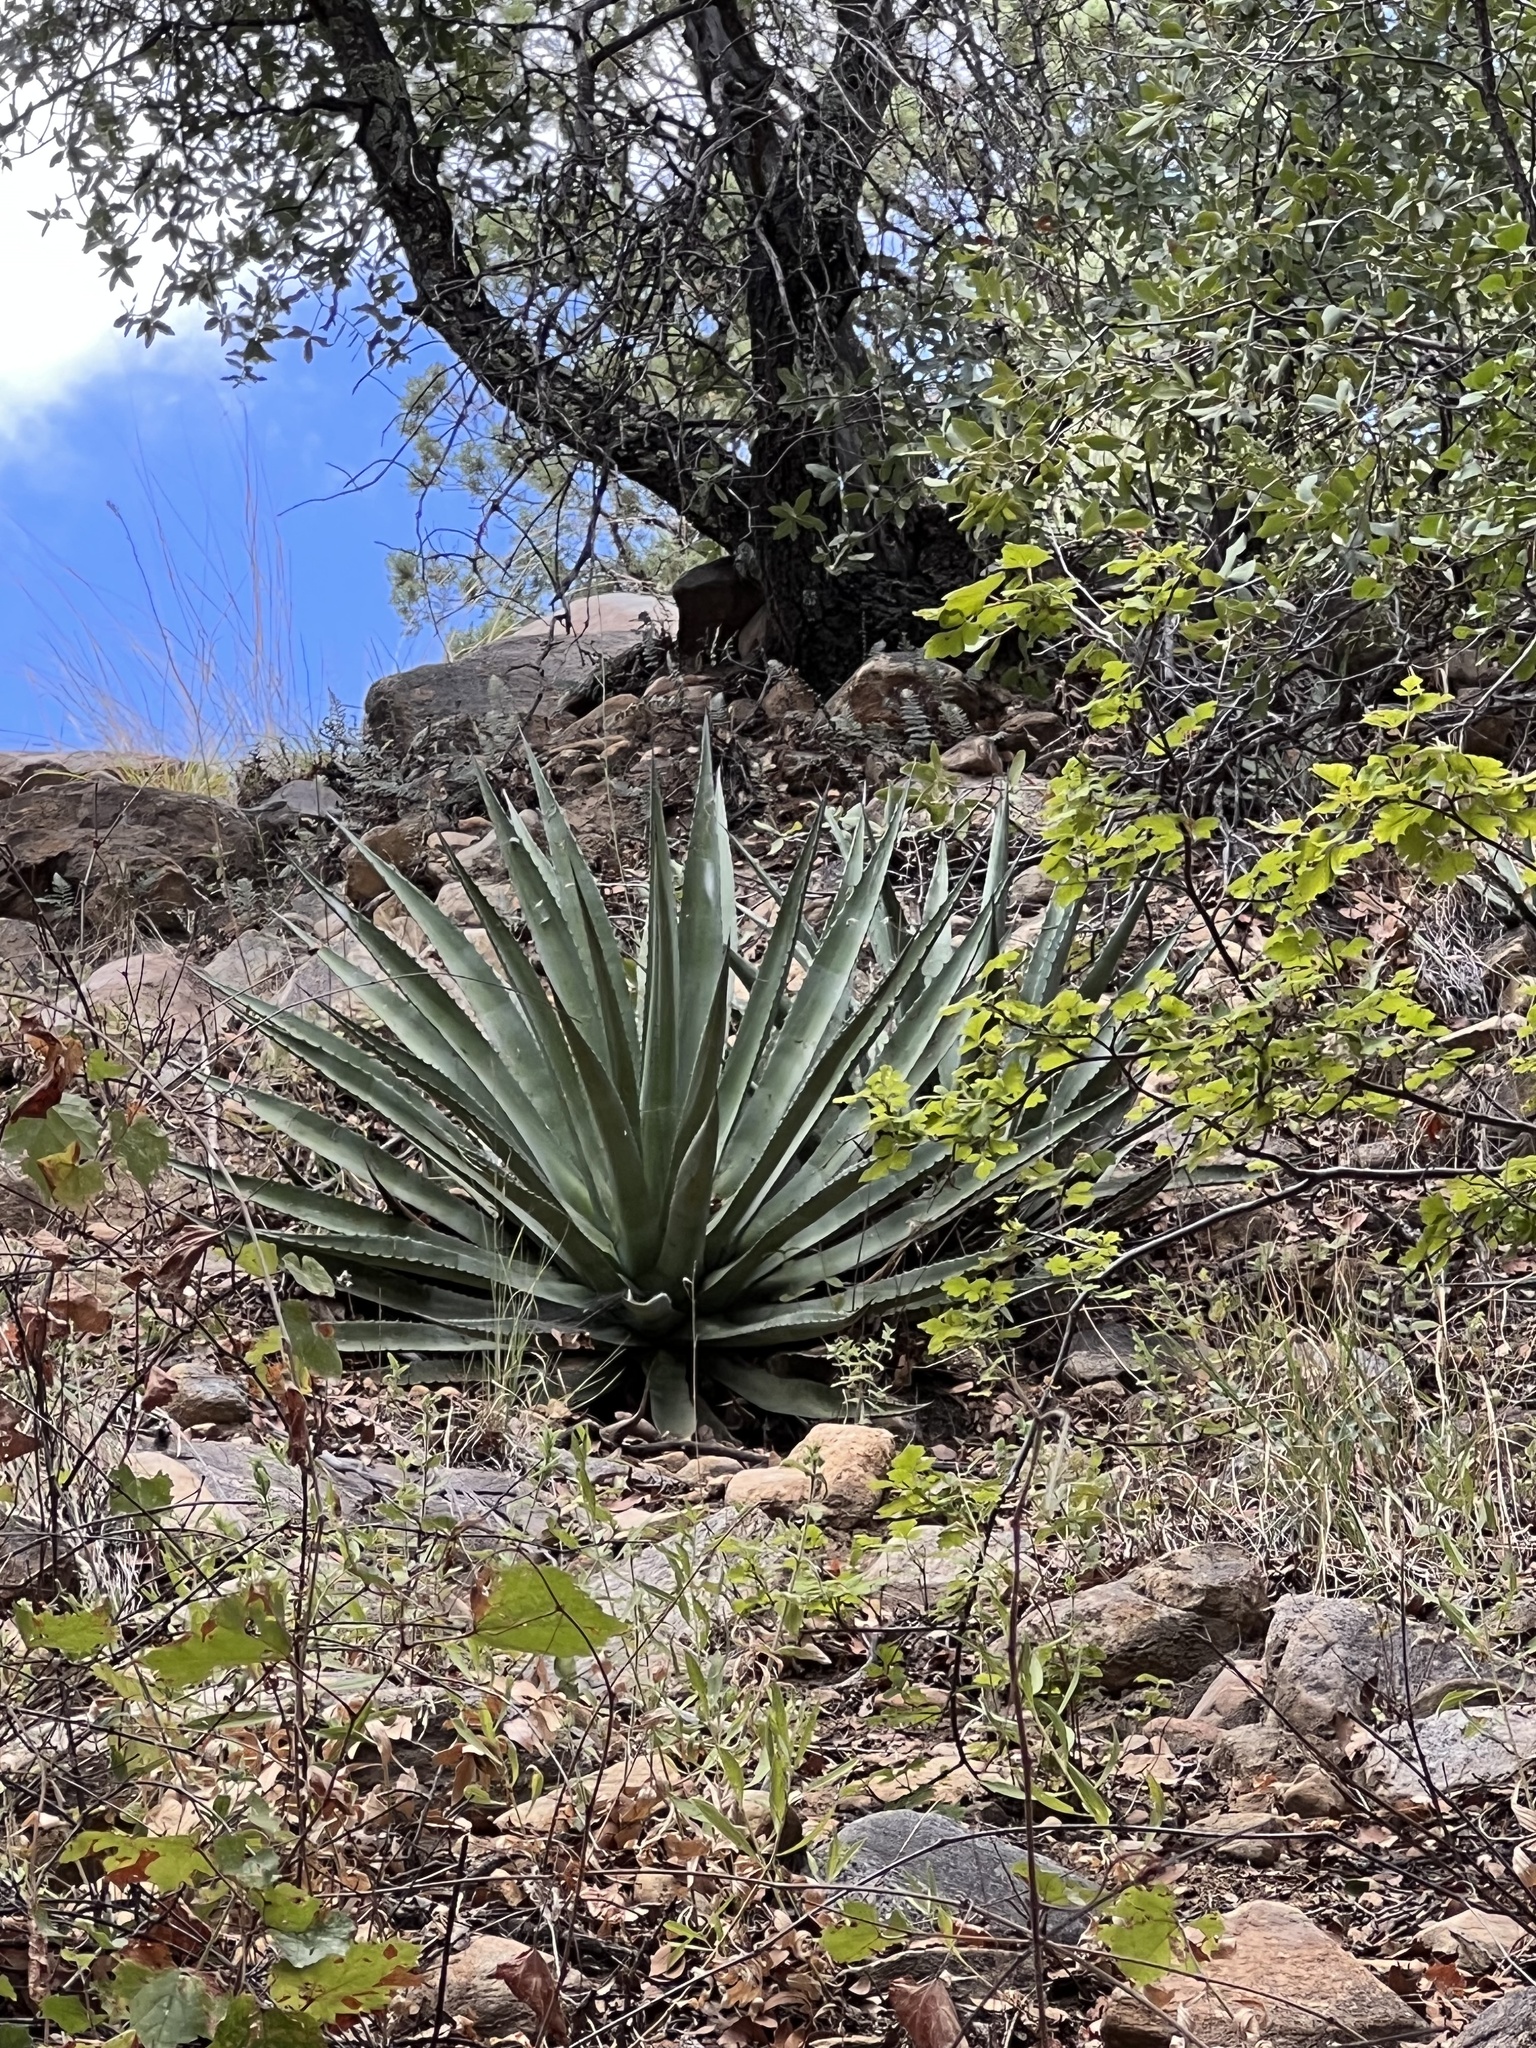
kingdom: Plantae
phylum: Tracheophyta
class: Liliopsida
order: Asparagales
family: Asparagaceae
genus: Agave
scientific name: Agave palmeri
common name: Palmer agave
